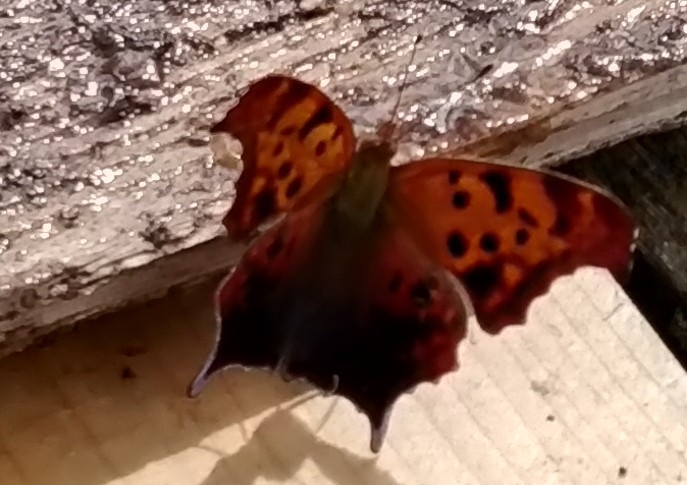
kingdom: Animalia
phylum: Arthropoda
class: Insecta
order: Lepidoptera
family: Nymphalidae
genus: Polygonia
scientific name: Polygonia interrogationis
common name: Question mark
